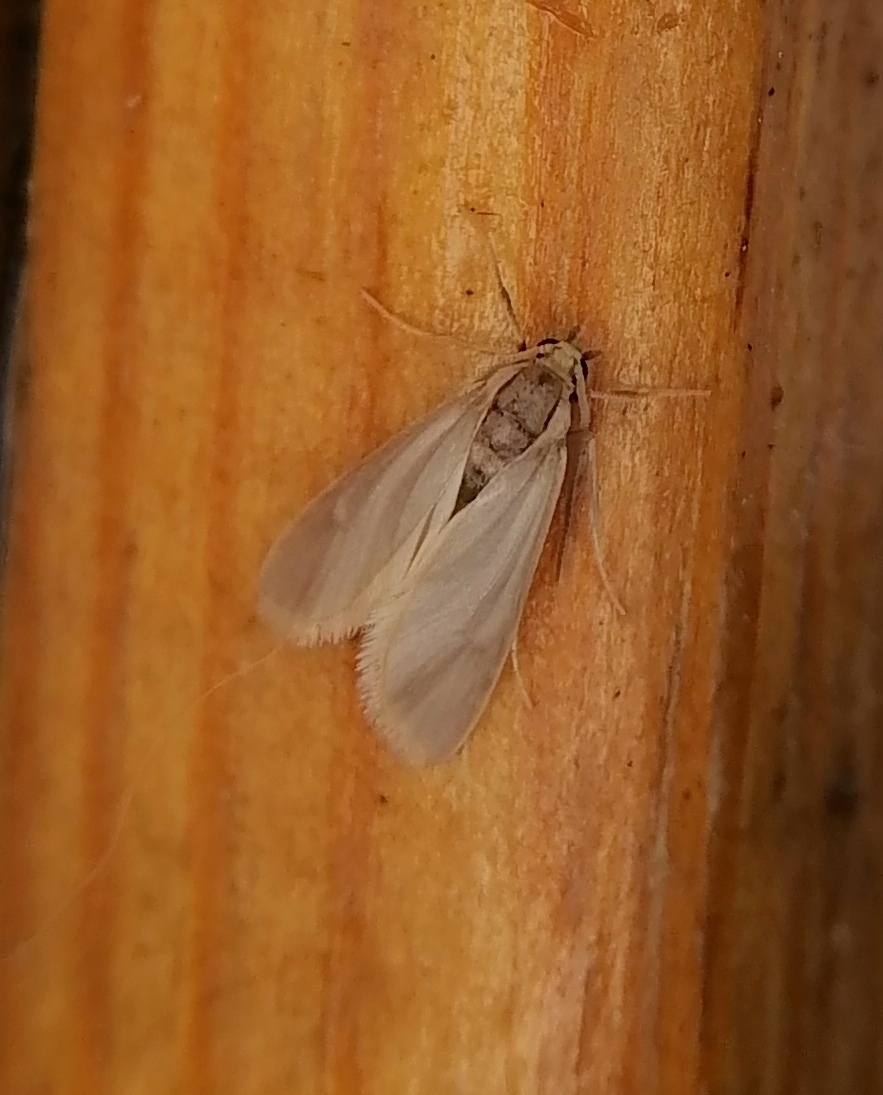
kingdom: Animalia
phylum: Arthropoda
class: Insecta
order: Lepidoptera
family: Crambidae
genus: Acentria
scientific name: Acentria ephemerella
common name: European water moth
